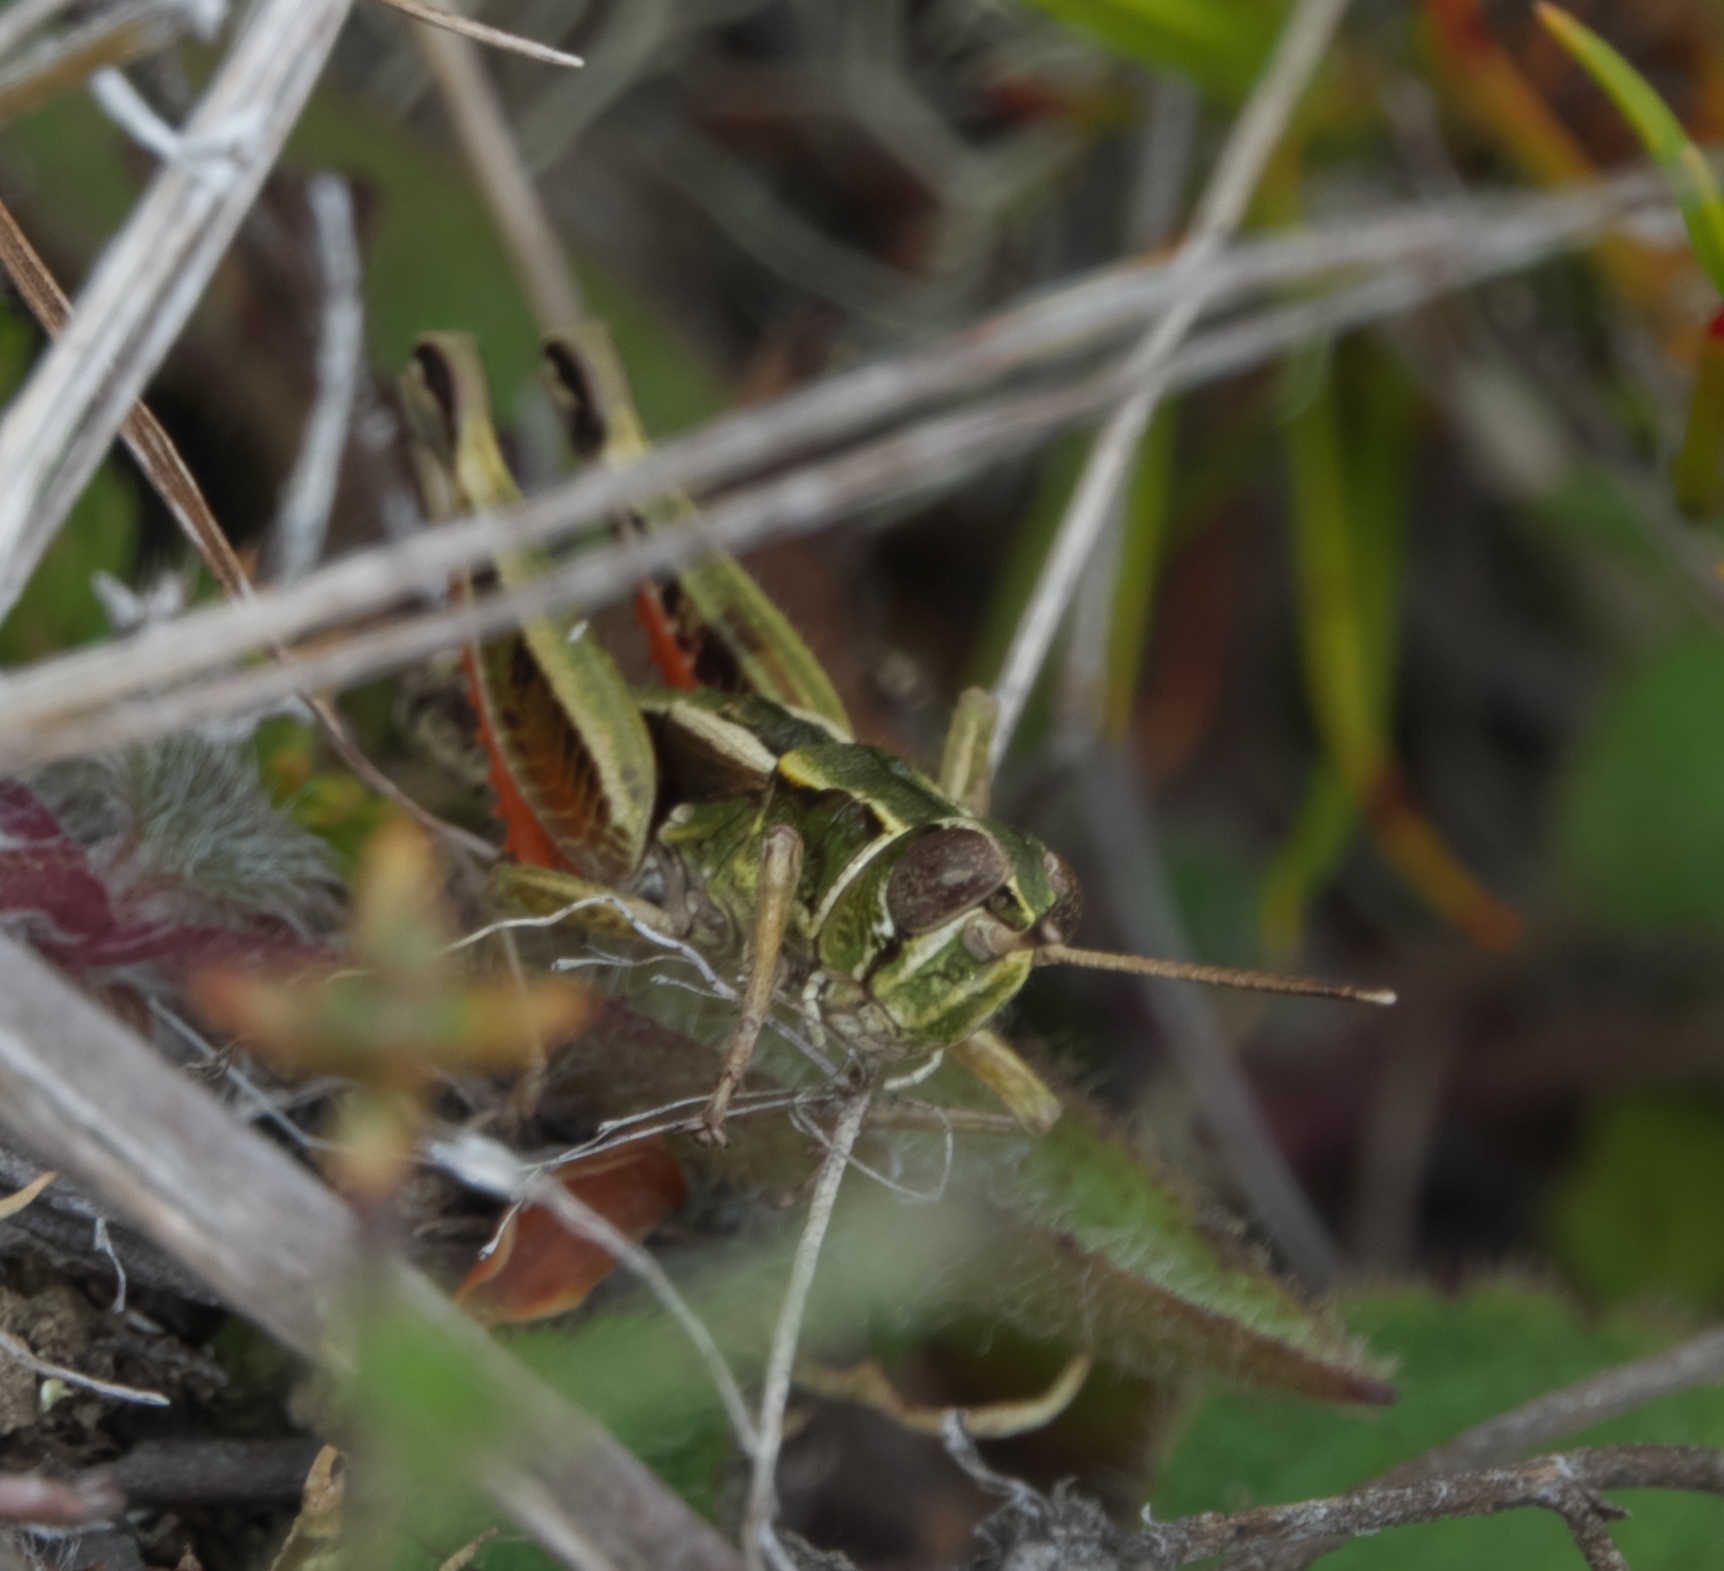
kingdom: Animalia
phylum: Arthropoda
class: Insecta
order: Orthoptera
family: Acrididae
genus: Sigaus
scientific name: Sigaus australis
